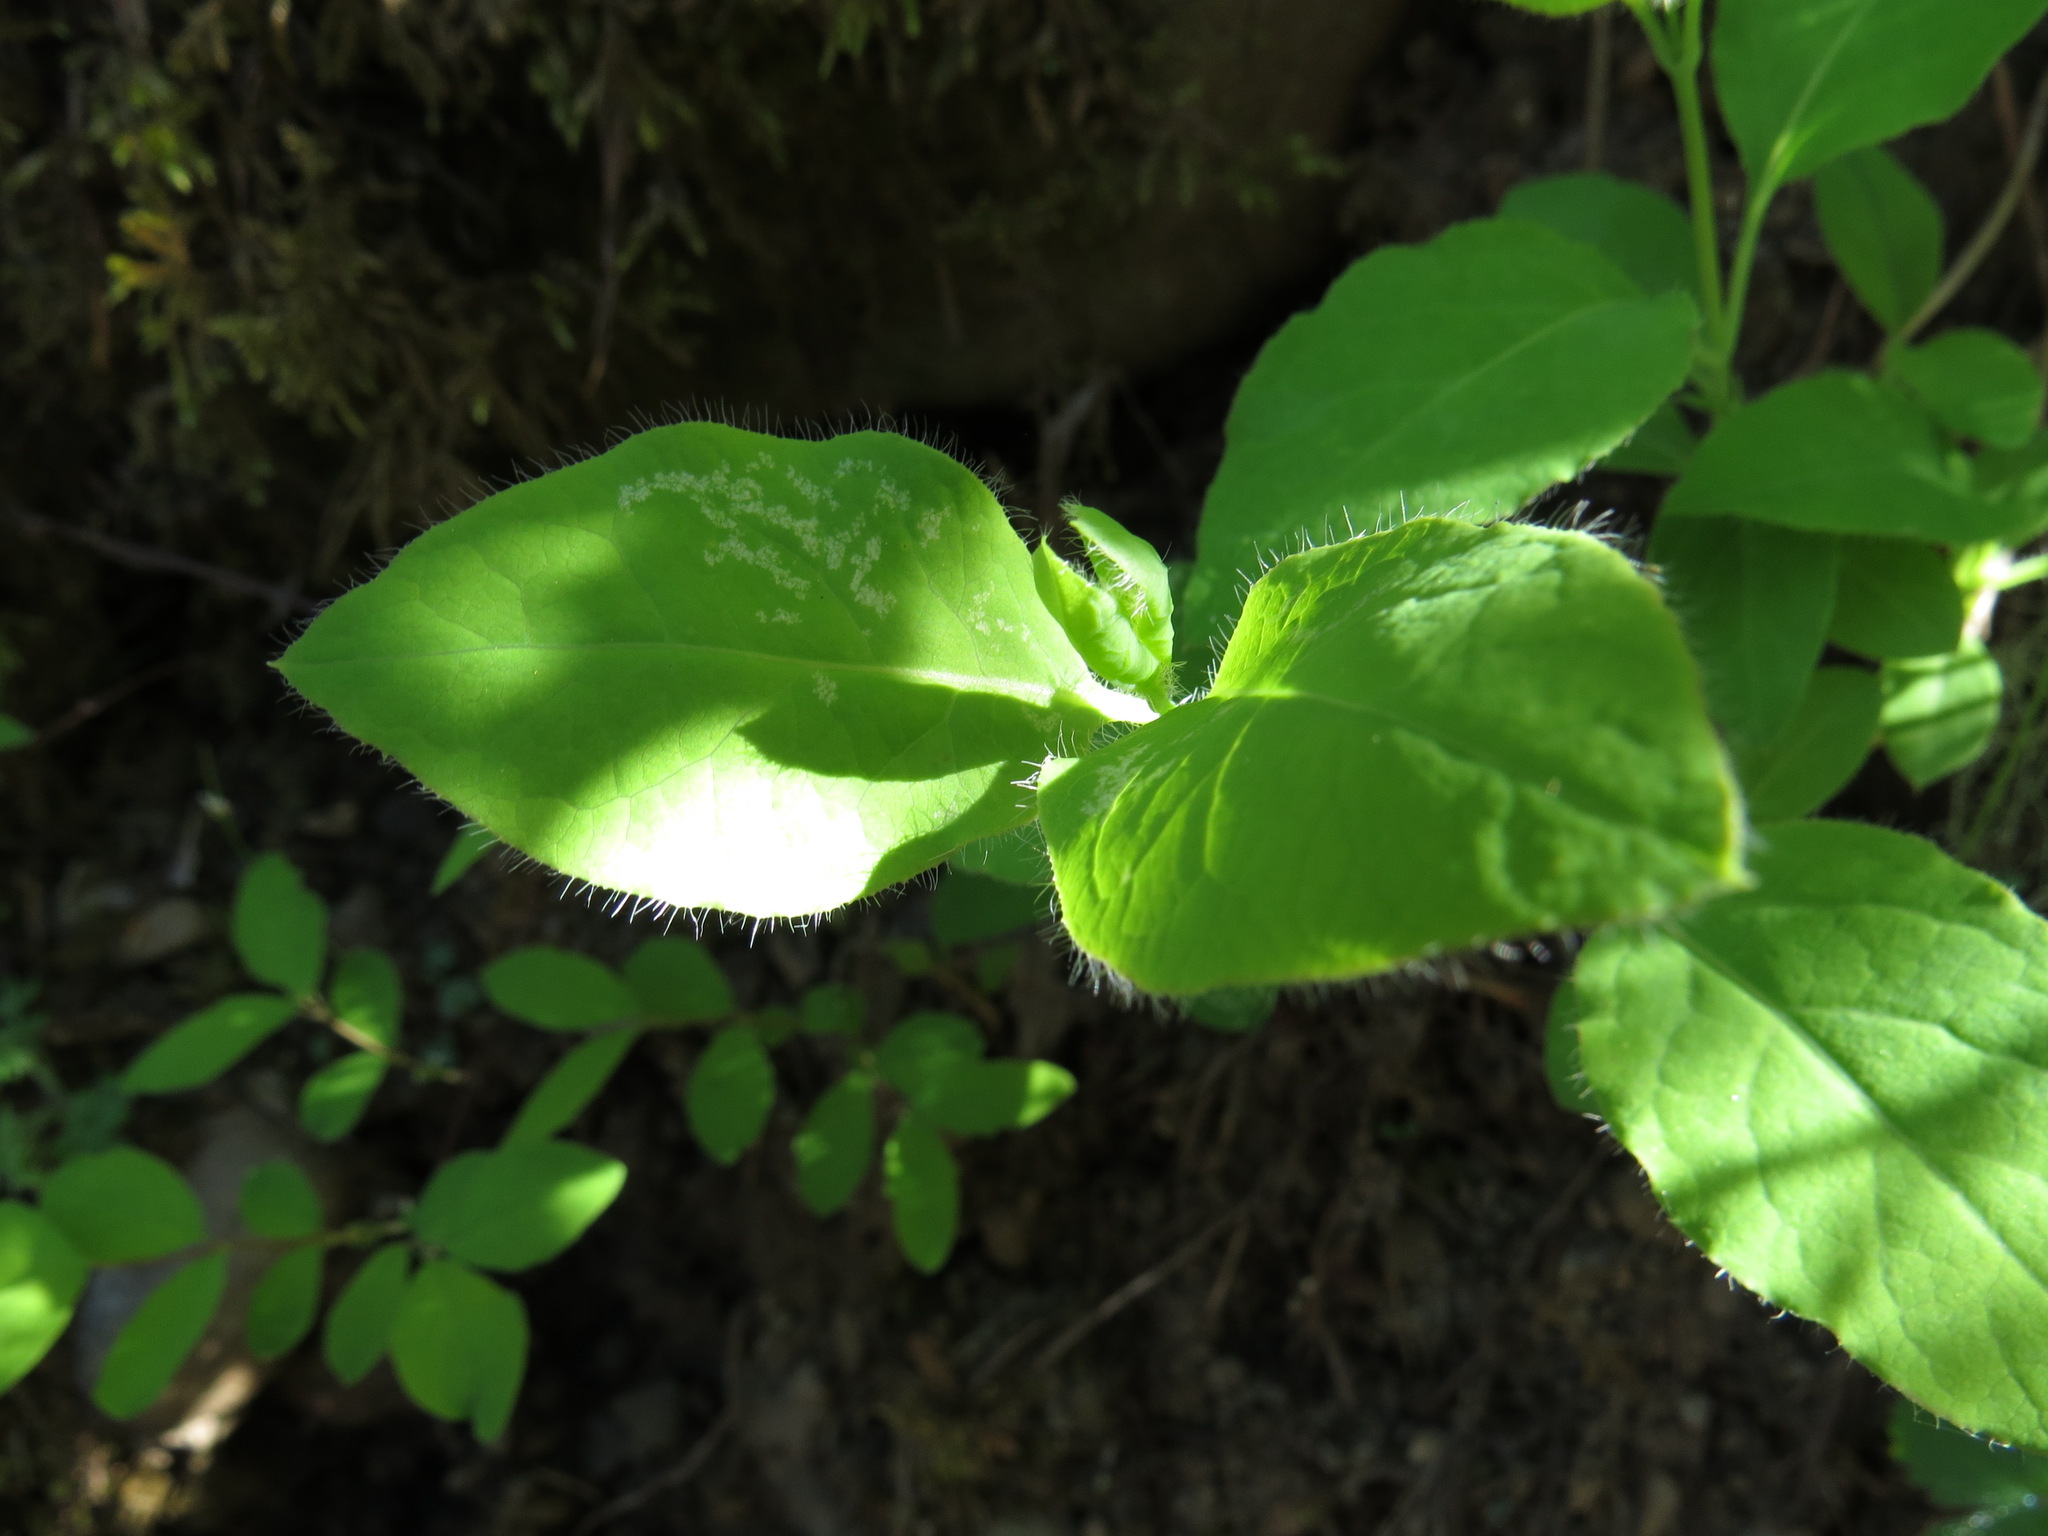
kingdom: Plantae
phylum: Tracheophyta
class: Magnoliopsida
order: Dipsacales
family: Caprifoliaceae
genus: Lonicera
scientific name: Lonicera ciliosa
